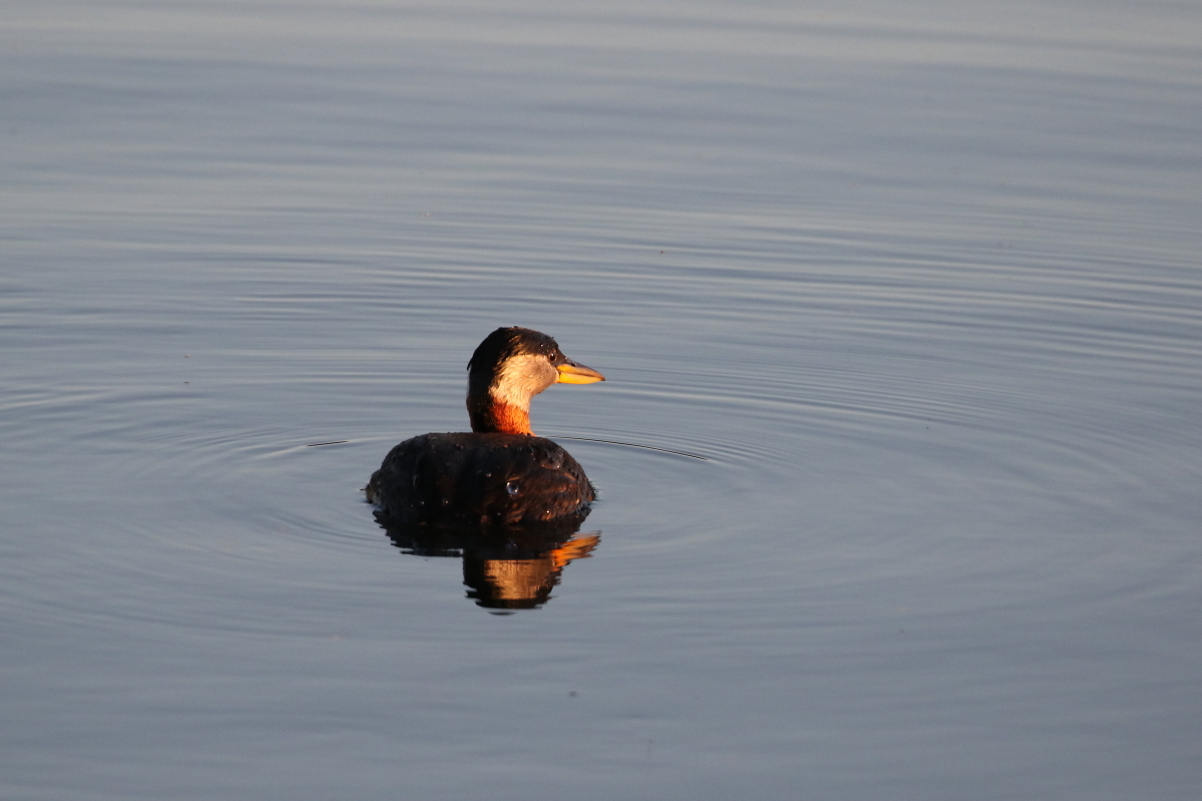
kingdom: Animalia
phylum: Chordata
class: Aves
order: Podicipediformes
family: Podicipedidae
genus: Podiceps
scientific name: Podiceps grisegena
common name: Red-necked grebe
